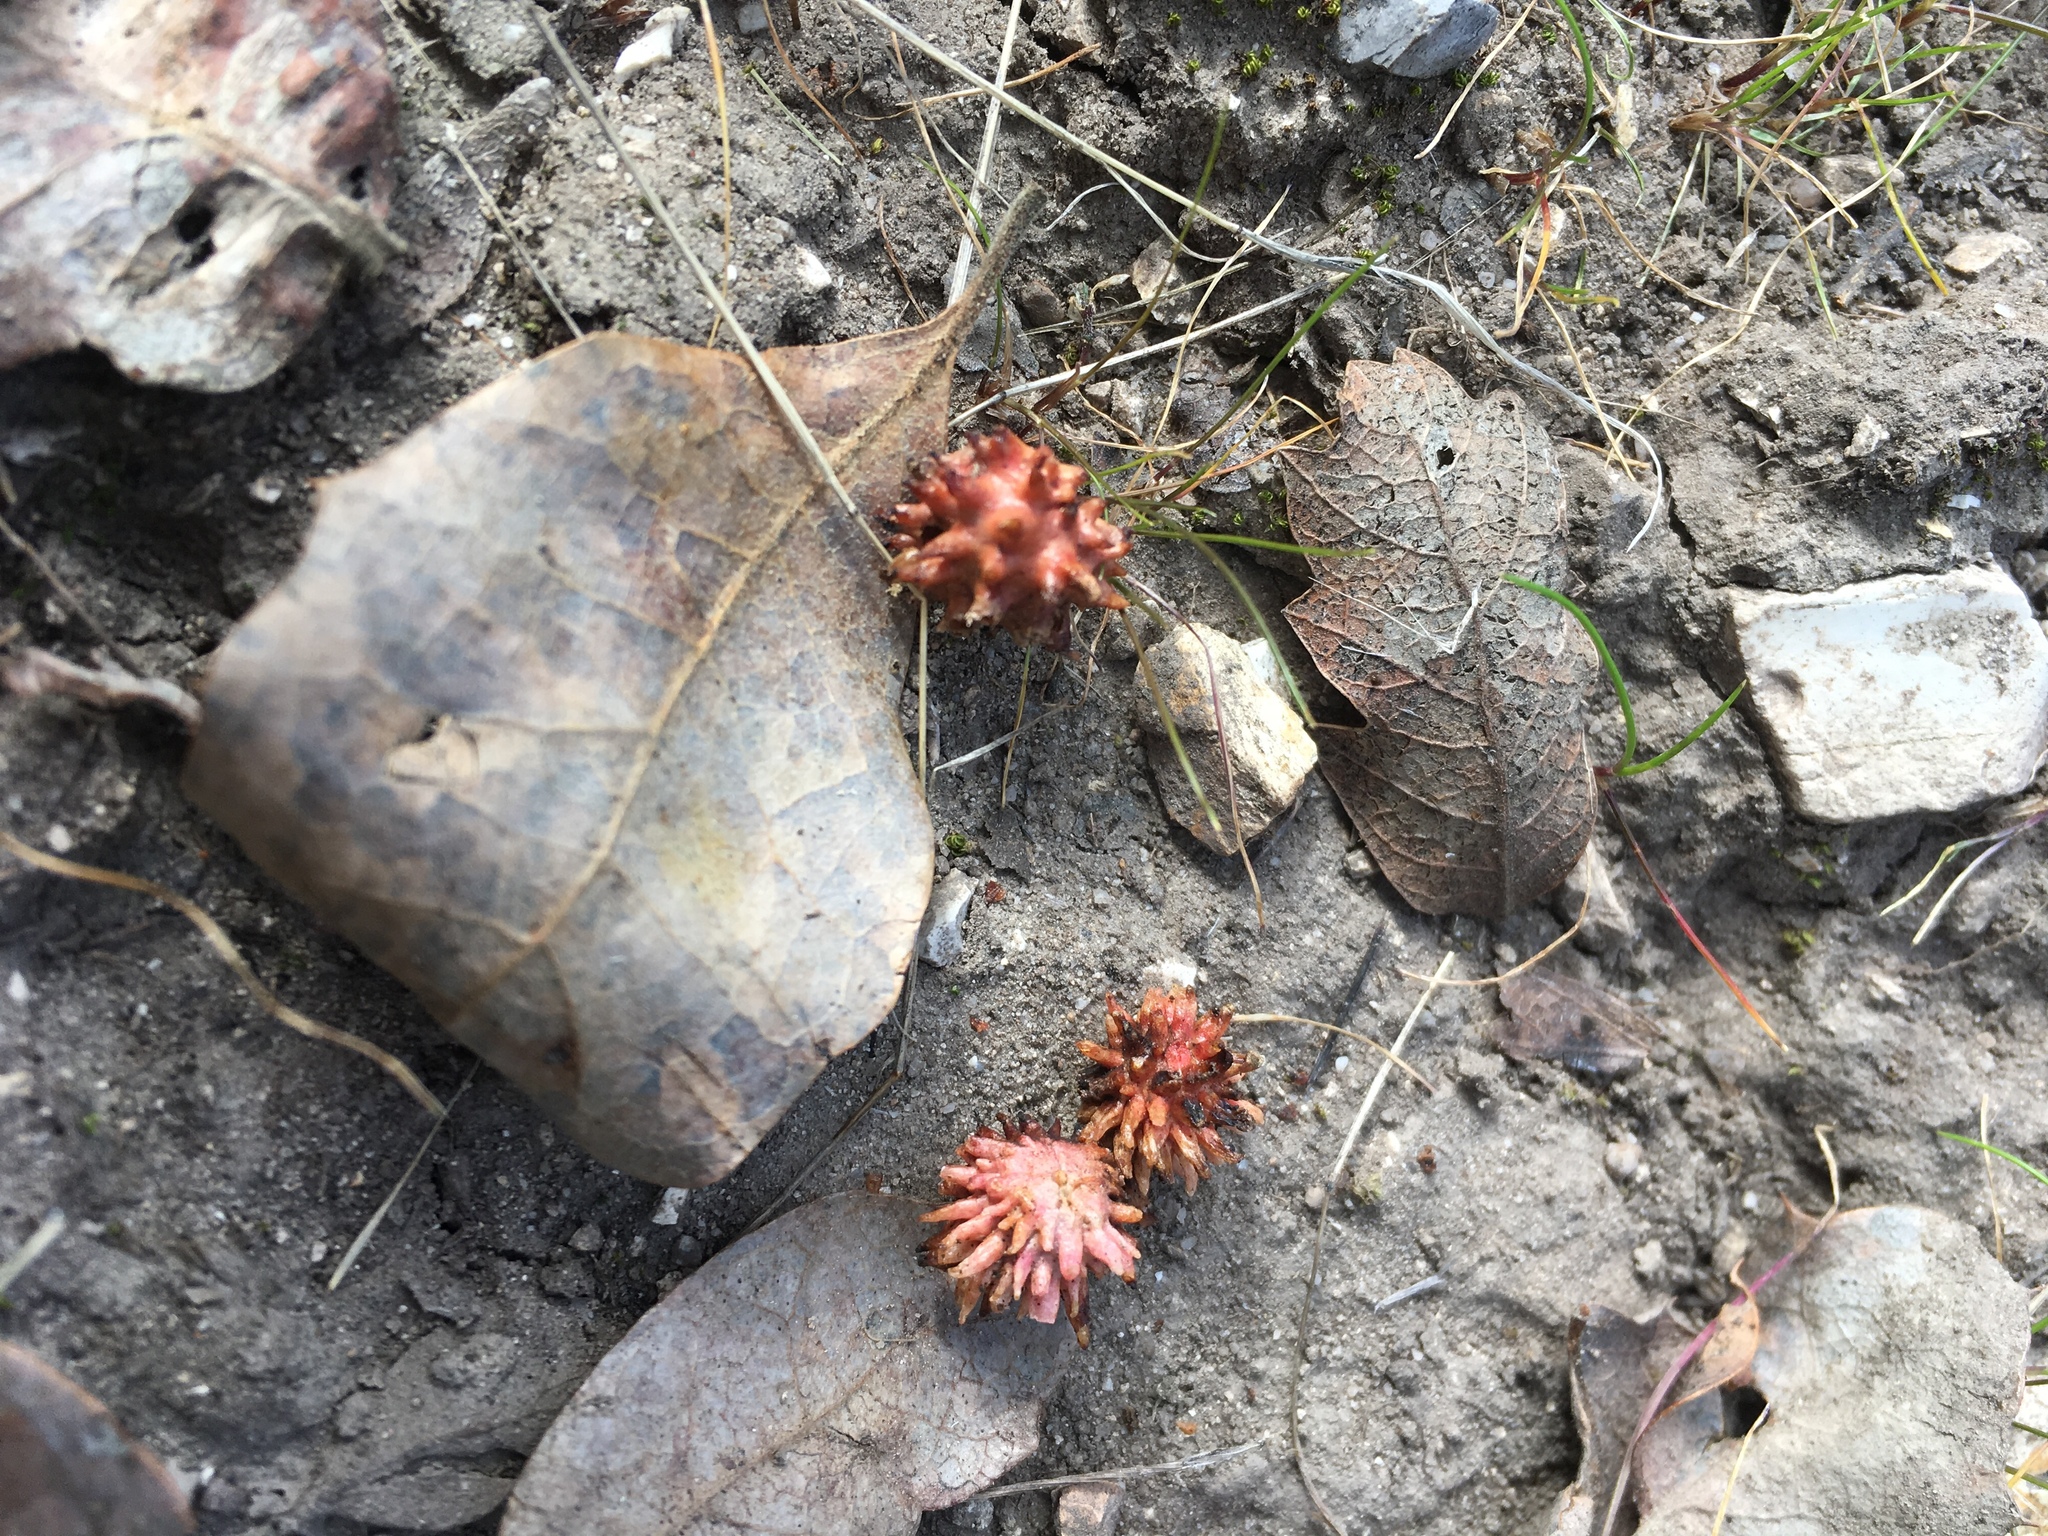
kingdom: Animalia
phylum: Arthropoda
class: Insecta
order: Hymenoptera
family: Cynipidae
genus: Cynips
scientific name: Cynips
